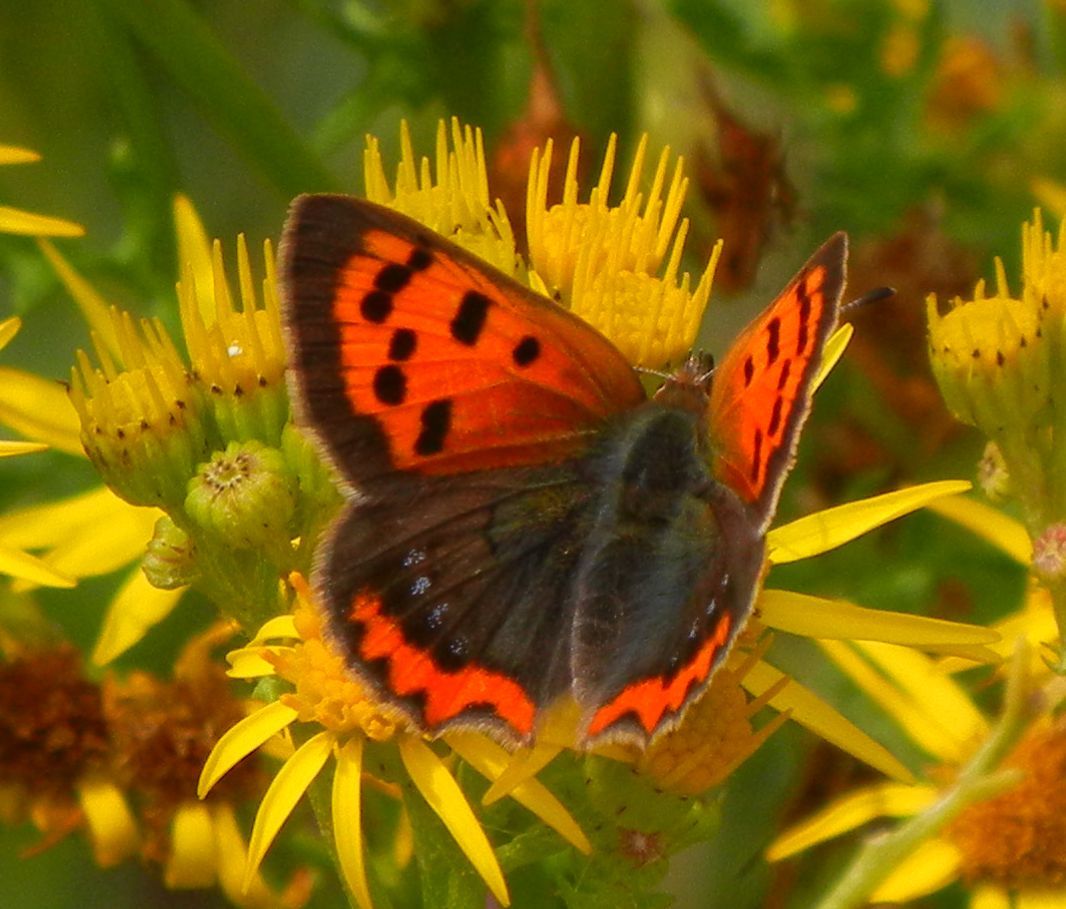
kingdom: Animalia
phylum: Arthropoda
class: Insecta
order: Lepidoptera
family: Lycaenidae
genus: Lycaena
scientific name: Lycaena phlaeas
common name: Small copper
